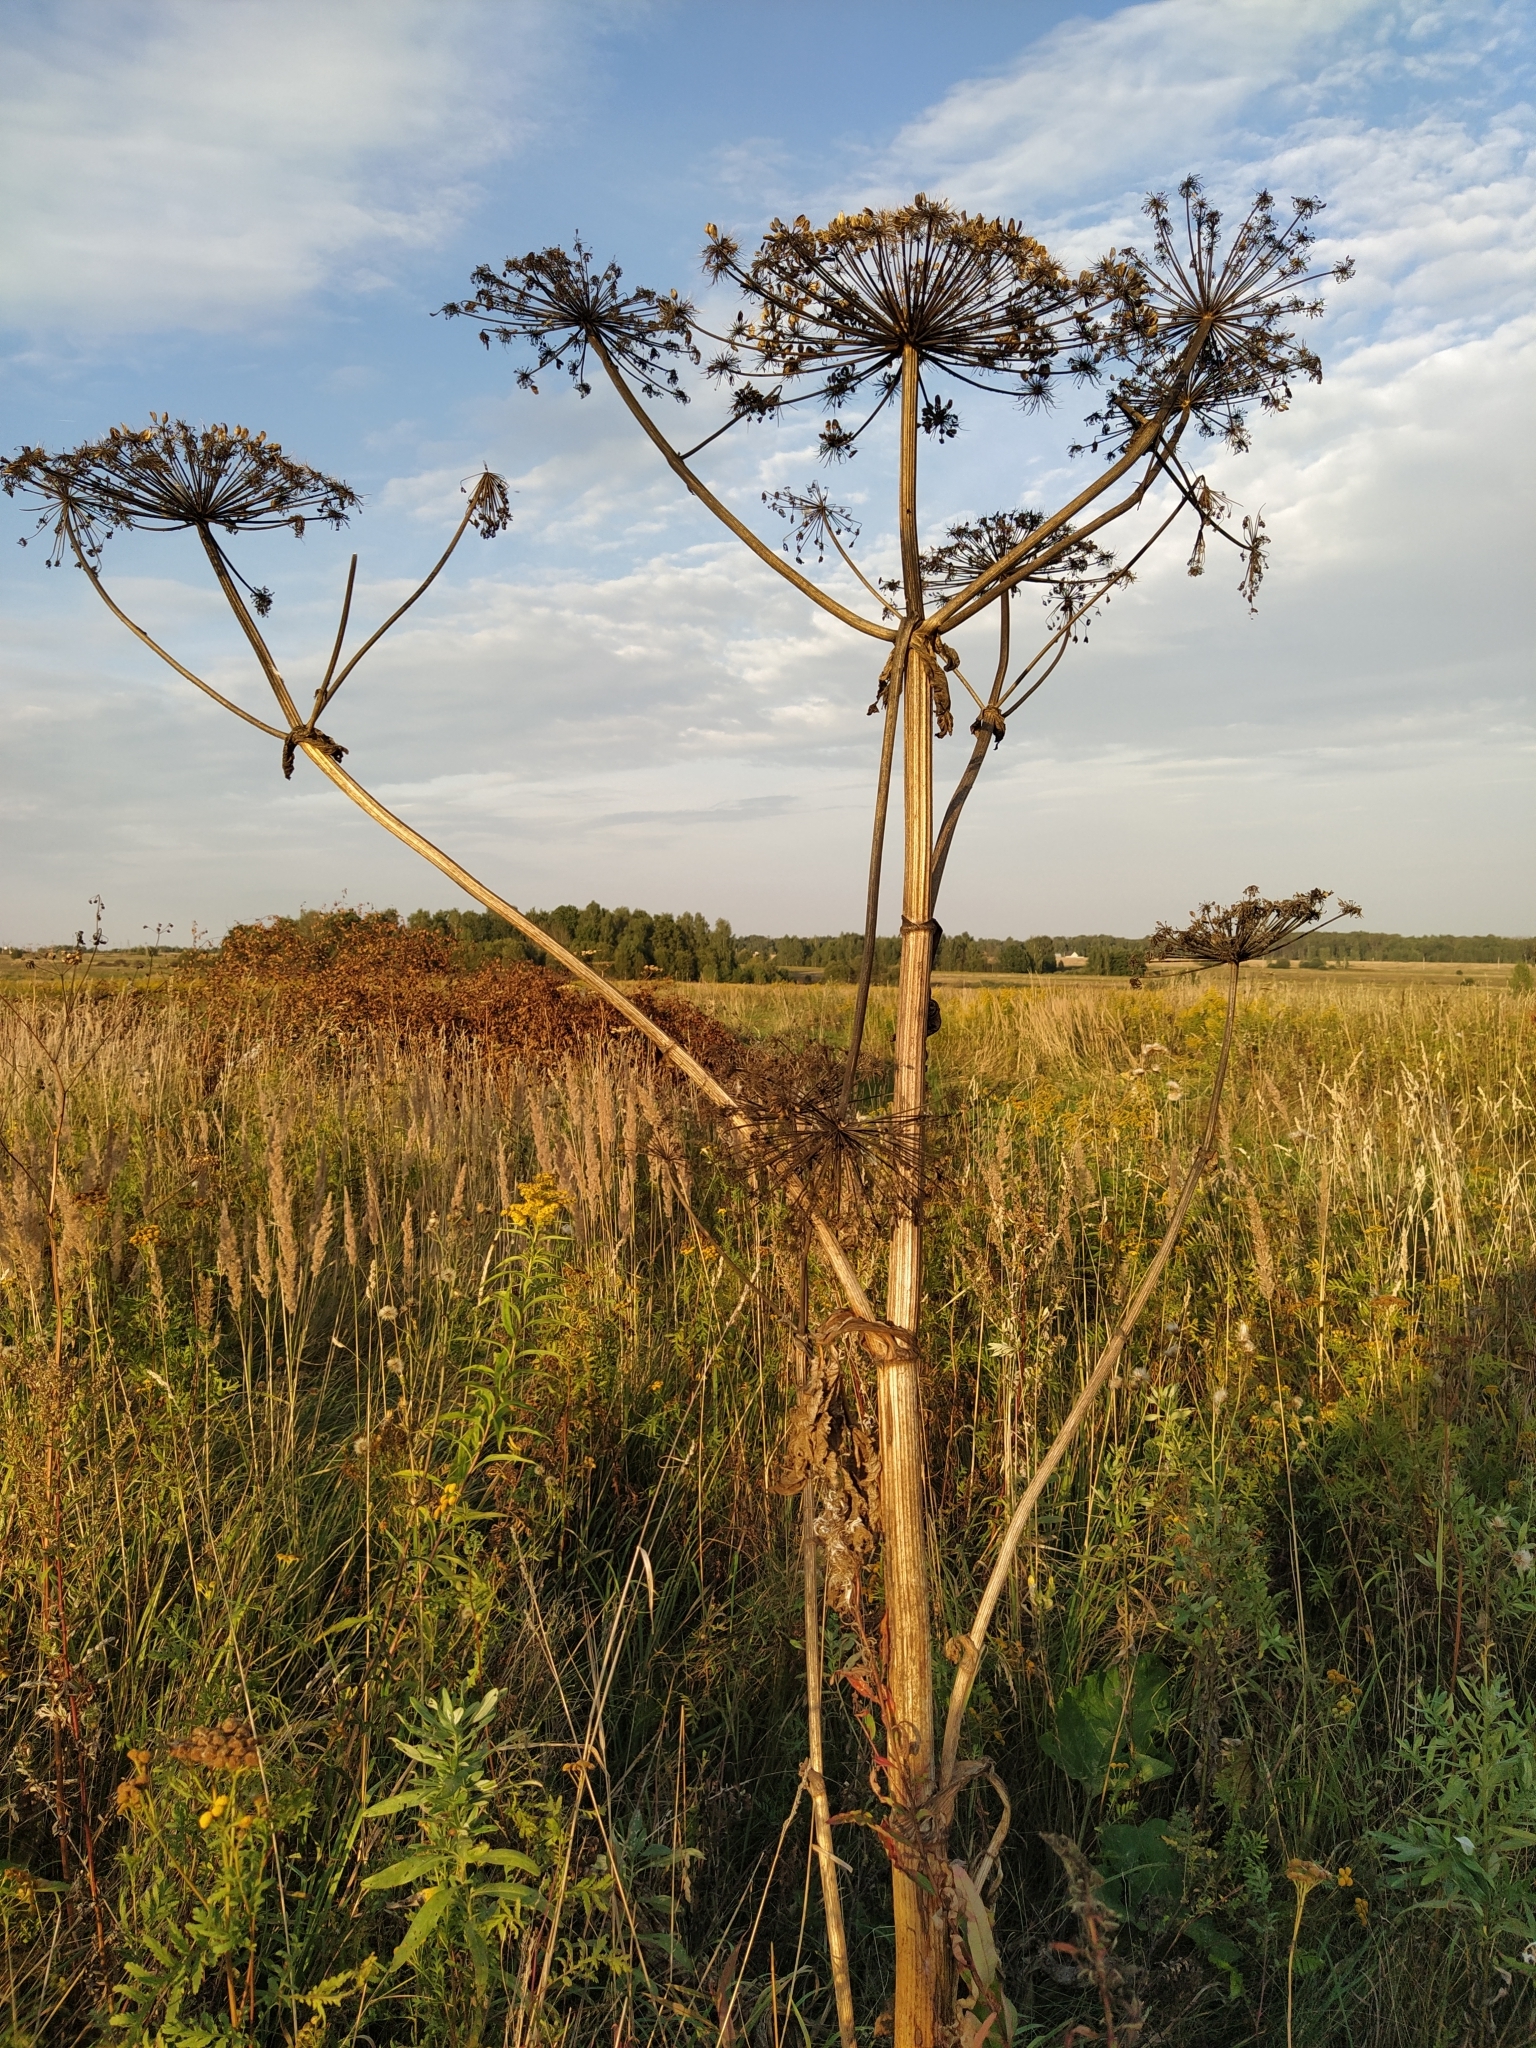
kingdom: Plantae
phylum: Tracheophyta
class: Magnoliopsida
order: Apiales
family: Apiaceae
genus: Heracleum
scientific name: Heracleum sosnowskyi
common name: Sosnowsky's hogweed
